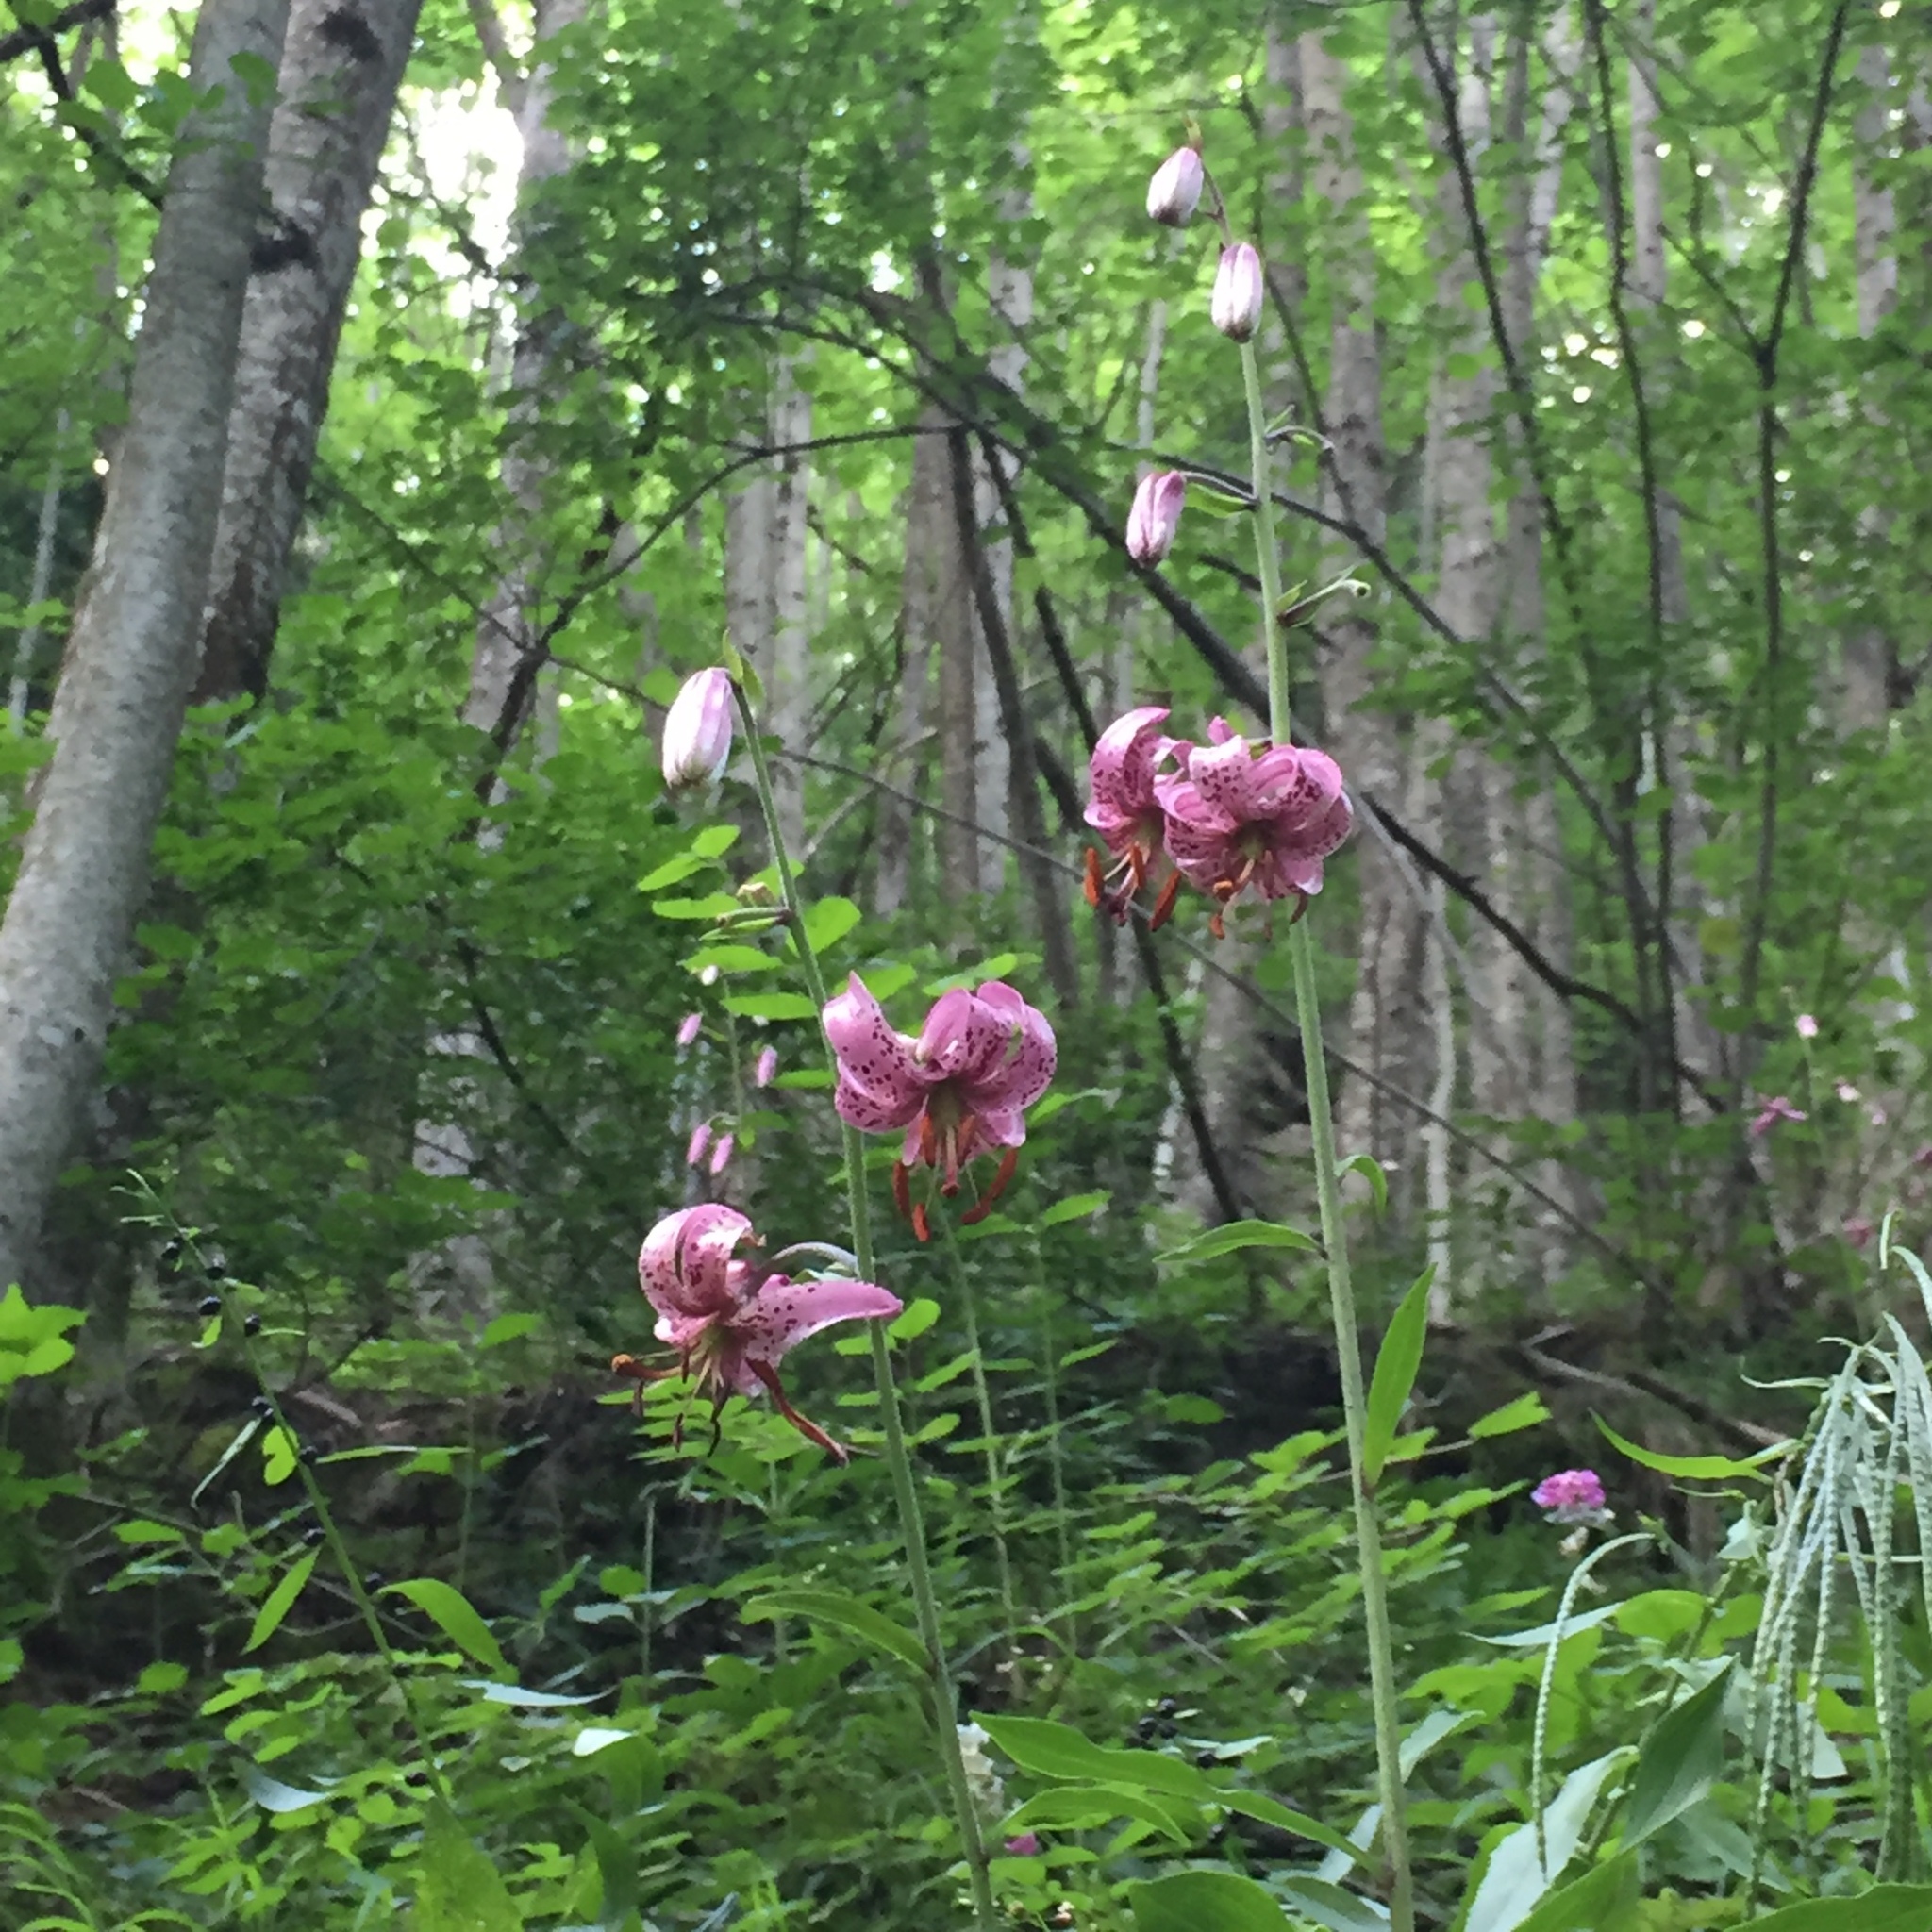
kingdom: Plantae
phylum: Tracheophyta
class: Liliopsida
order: Liliales
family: Liliaceae
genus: Lilium
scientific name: Lilium martagon
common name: Martagon lily
